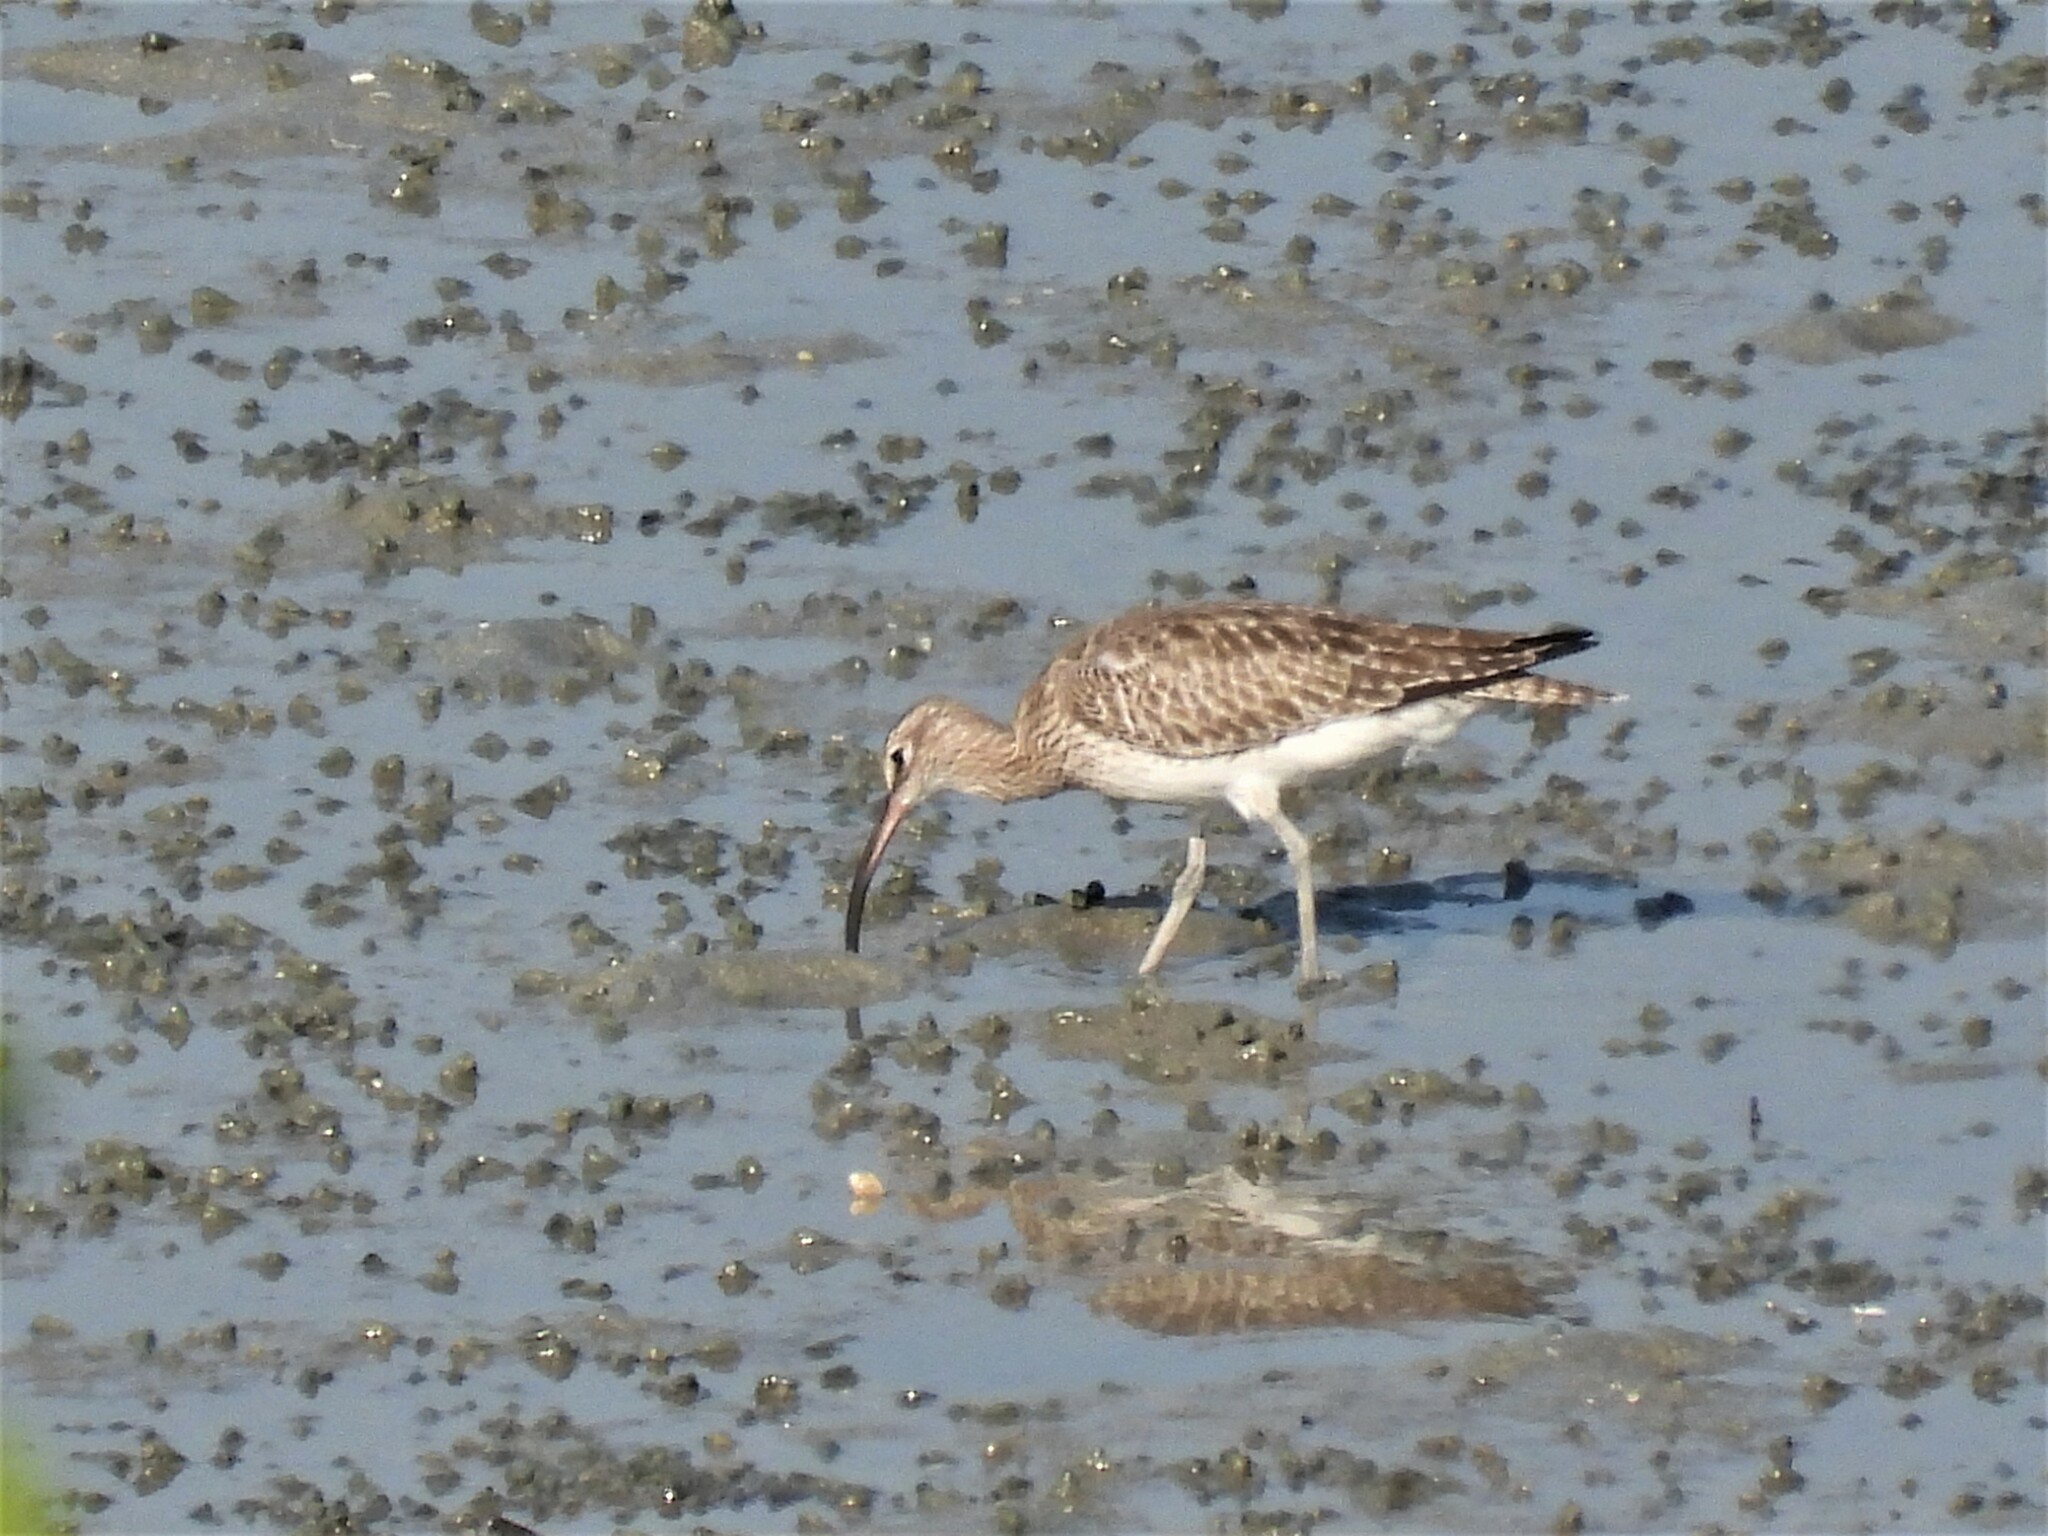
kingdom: Animalia
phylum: Chordata
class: Aves
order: Charadriiformes
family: Scolopacidae
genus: Numenius
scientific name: Numenius phaeopus
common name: Whimbrel
